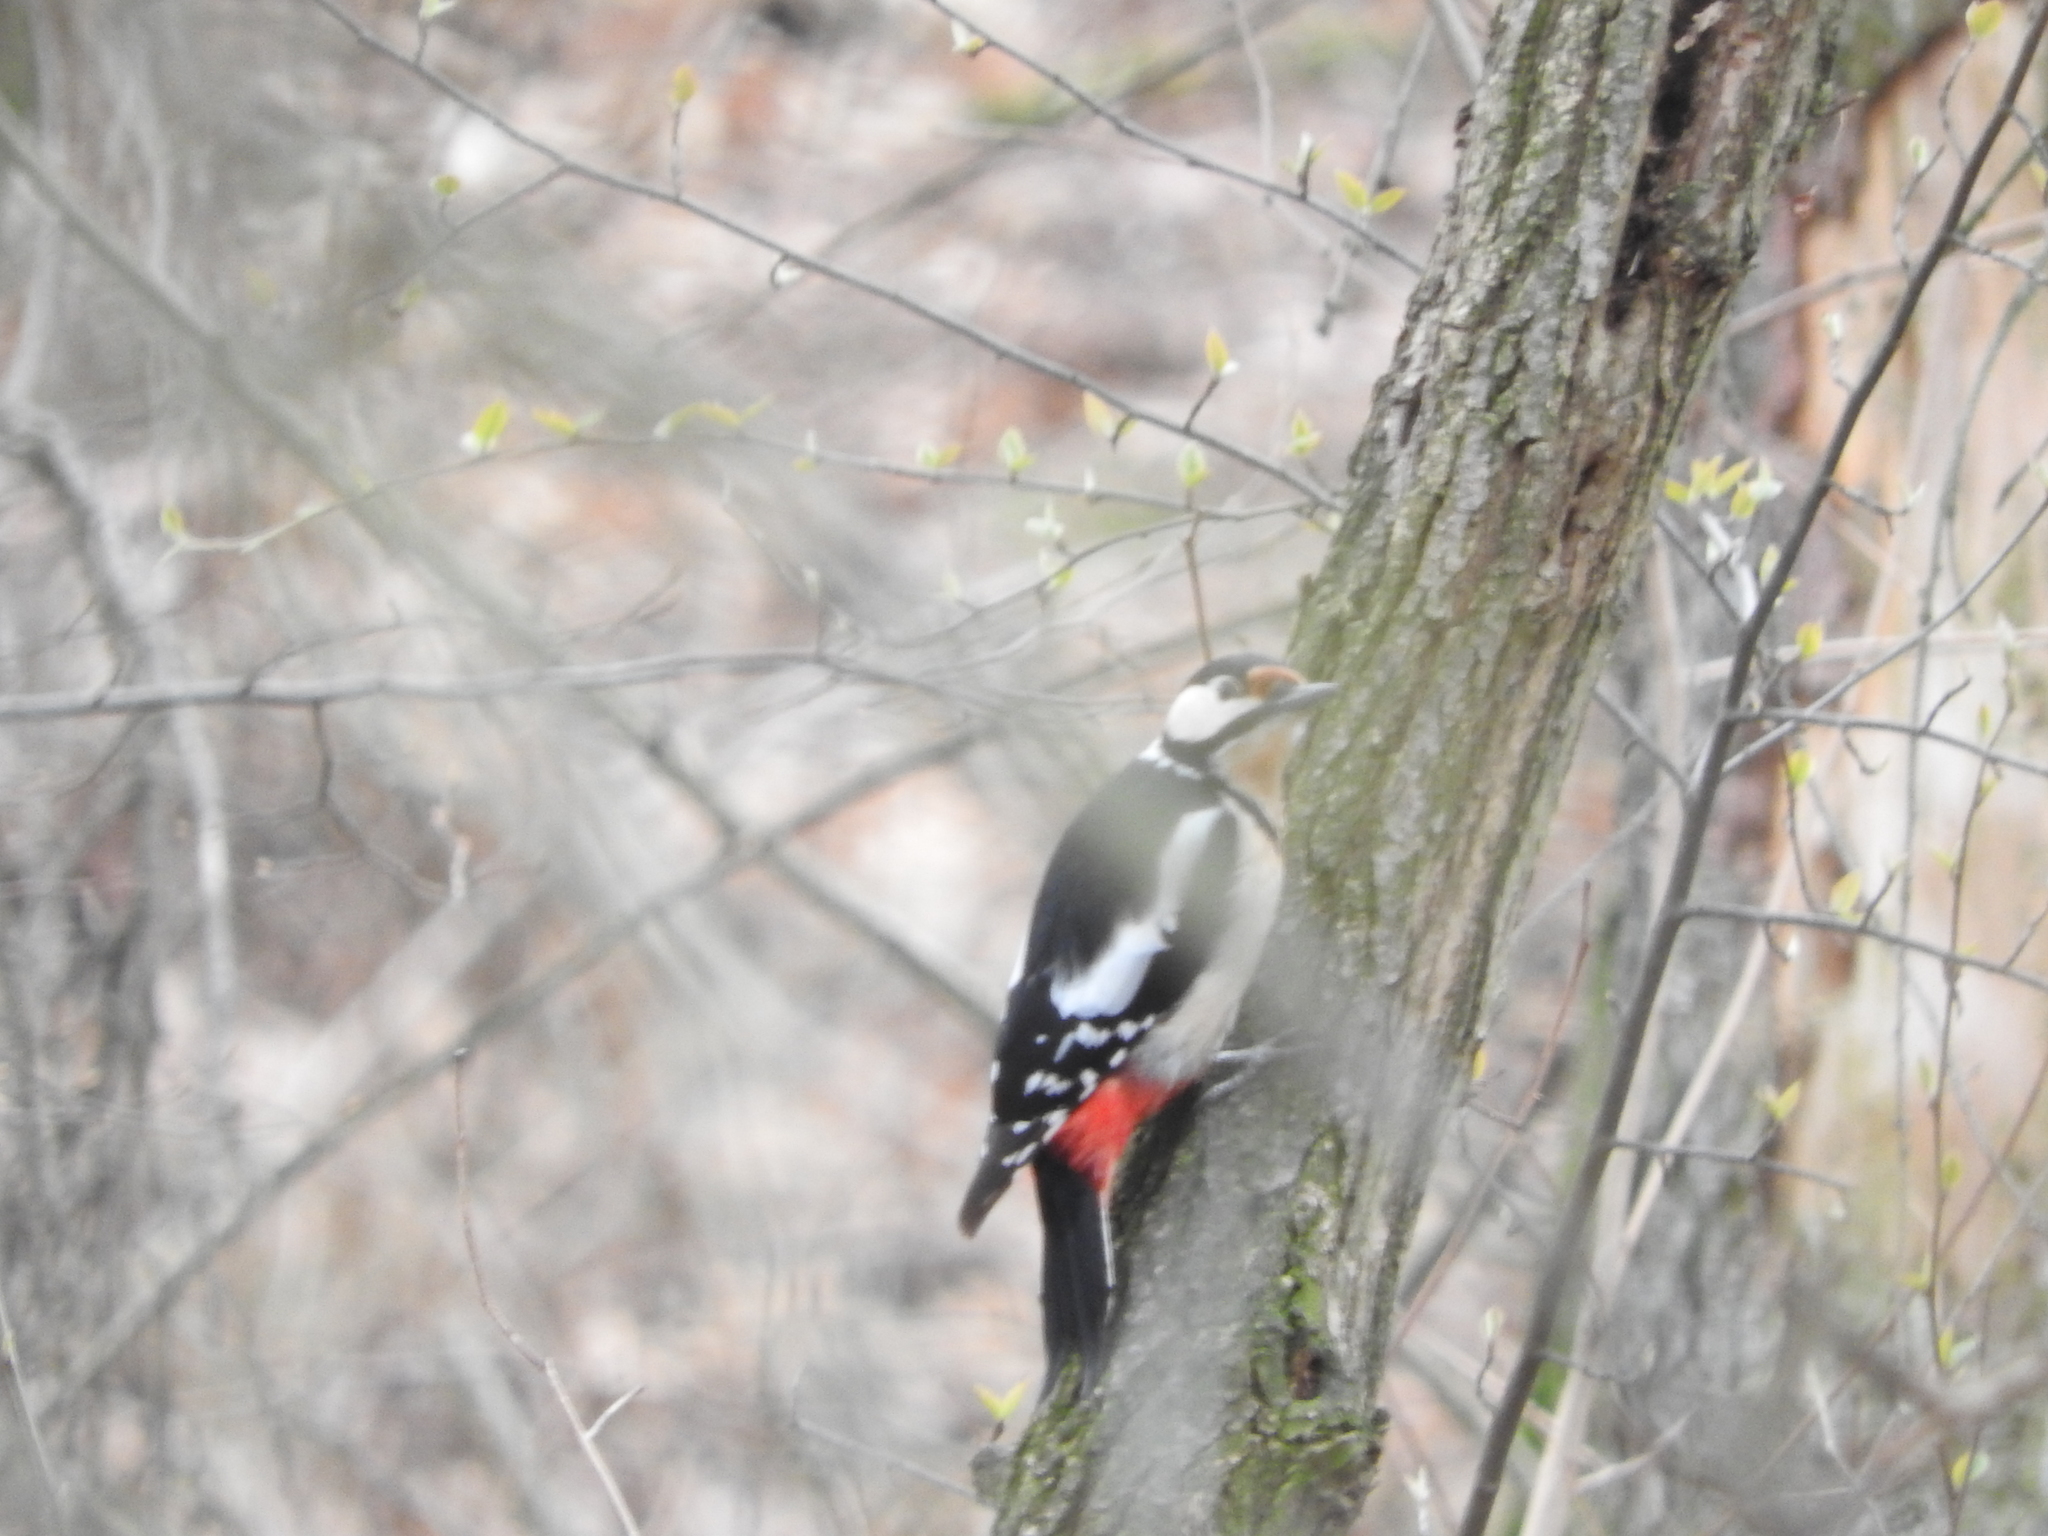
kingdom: Animalia
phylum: Chordata
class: Aves
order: Piciformes
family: Picidae
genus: Dendrocopos
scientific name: Dendrocopos major
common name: Great spotted woodpecker
